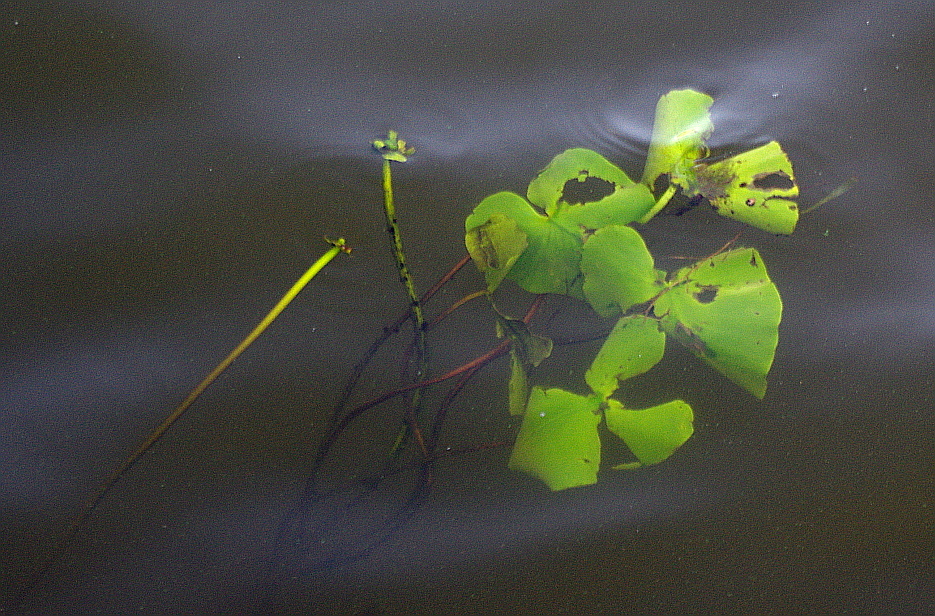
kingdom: Plantae
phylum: Tracheophyta
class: Magnoliopsida
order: Nymphaeales
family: Nymphaeaceae
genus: Nuphar
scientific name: Nuphar lutea
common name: Yellow water-lily
